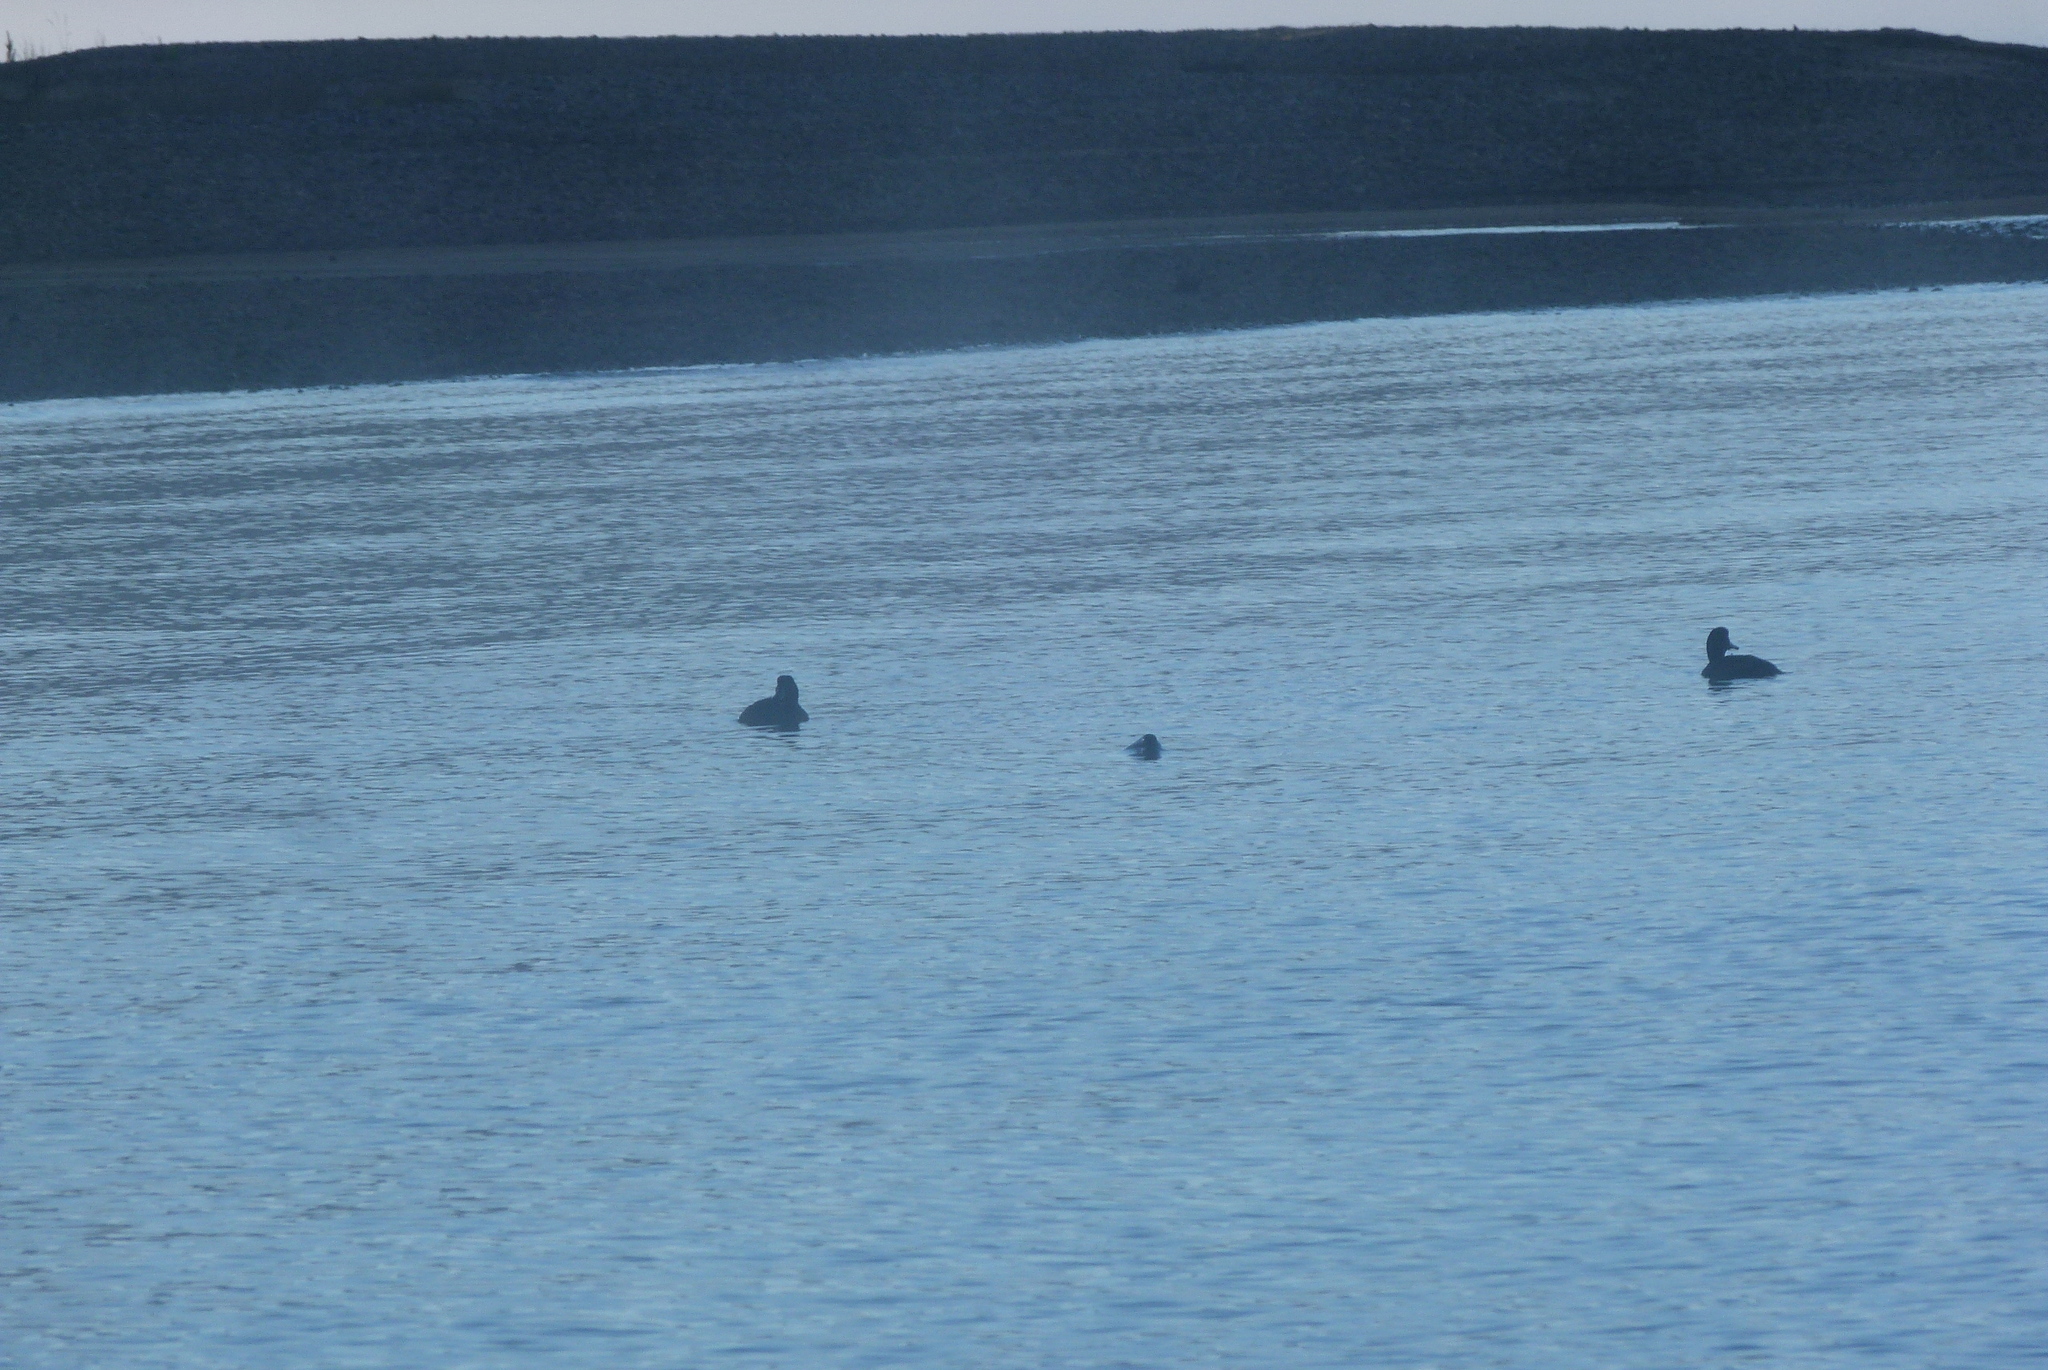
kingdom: Animalia
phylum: Chordata
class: Aves
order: Anseriformes
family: Anatidae
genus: Aythya
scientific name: Aythya novaeseelandiae
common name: New zealand scaup
